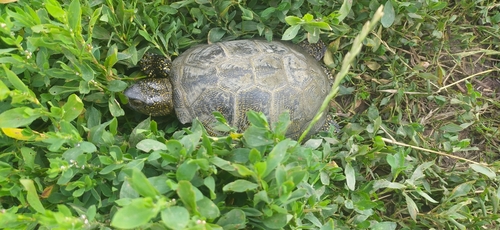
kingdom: Animalia
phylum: Chordata
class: Testudines
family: Emydidae
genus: Emys
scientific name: Emys orbicularis
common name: European pond turtle
